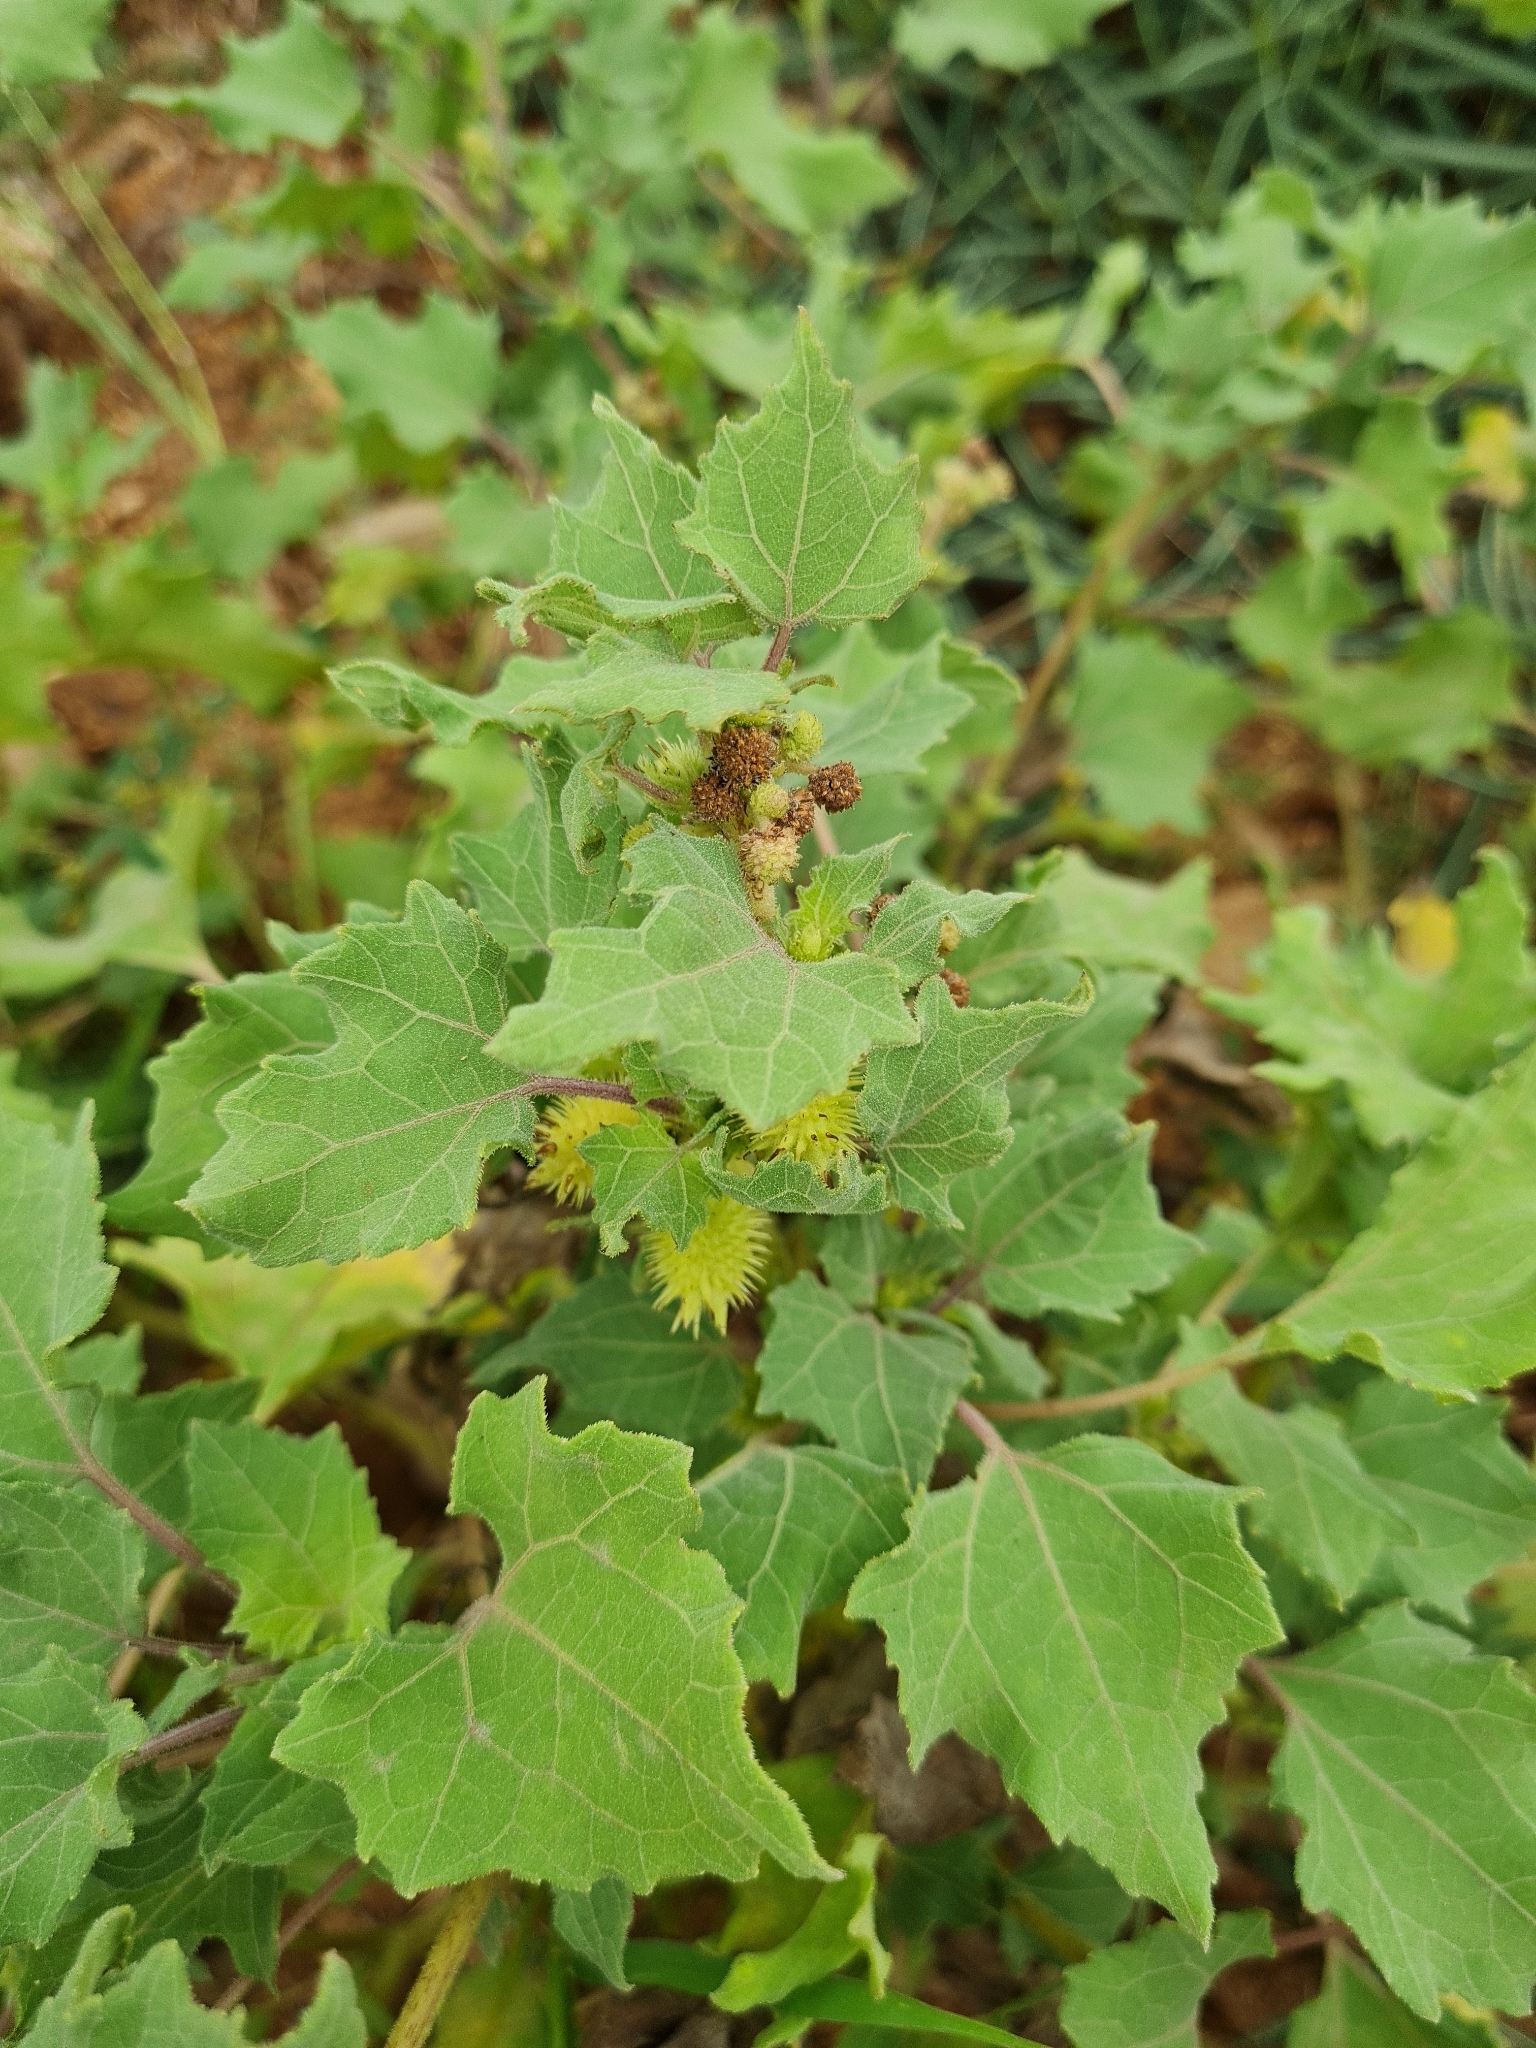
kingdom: Plantae
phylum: Tracheophyta
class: Magnoliopsida
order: Asterales
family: Asteraceae
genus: Xanthium
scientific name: Xanthium strumarium
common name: Rough cocklebur
